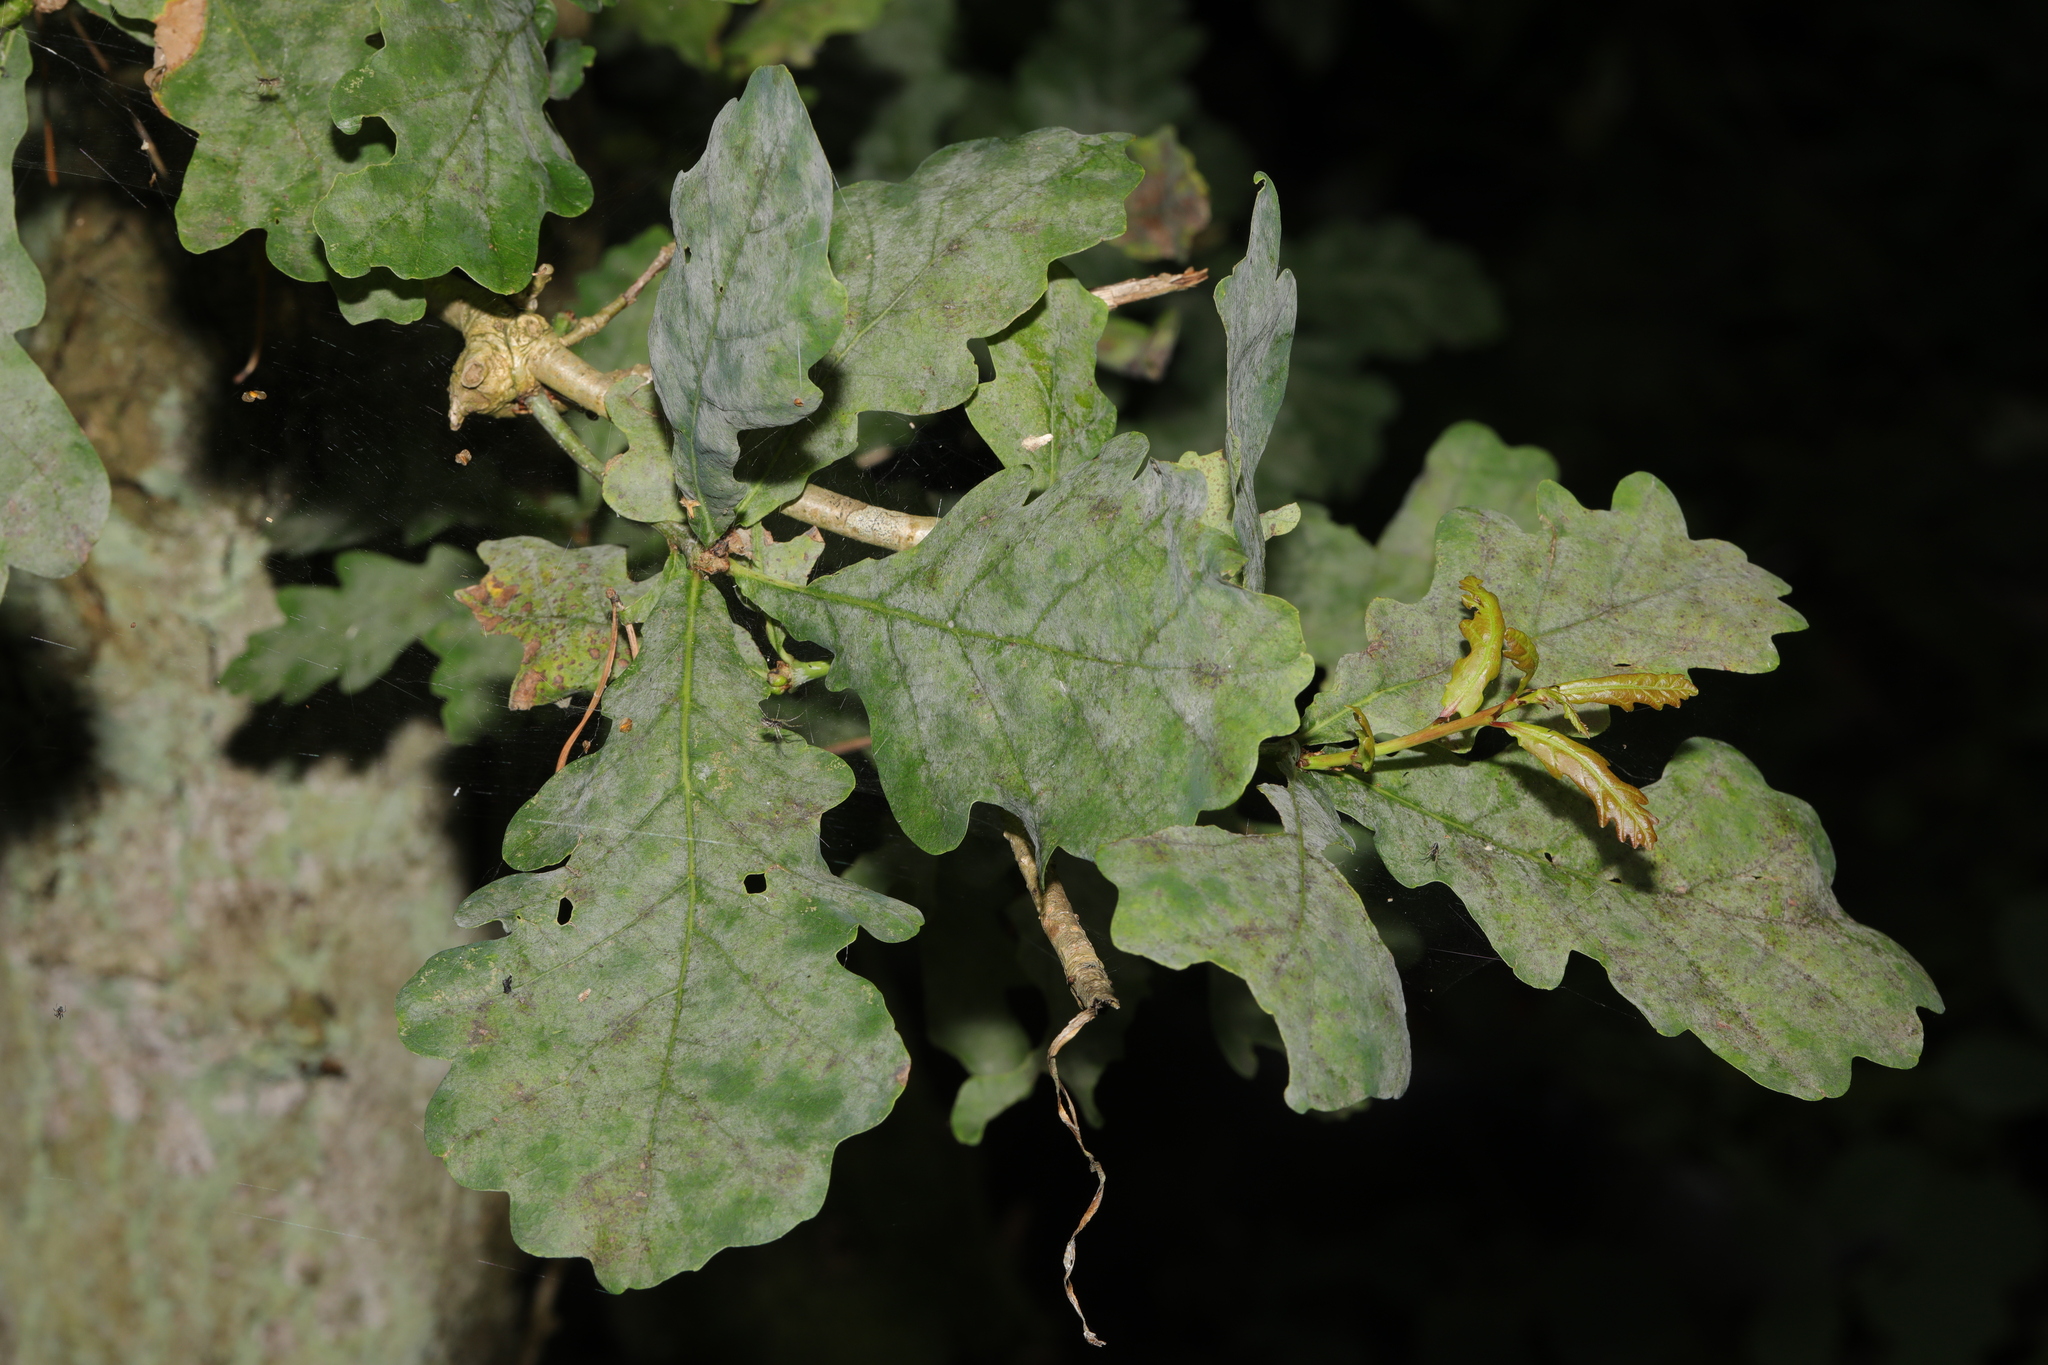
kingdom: Fungi
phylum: Ascomycota
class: Leotiomycetes
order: Helotiales
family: Erysiphaceae
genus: Erysiphe
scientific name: Erysiphe alphitoides
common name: Oak mildew
